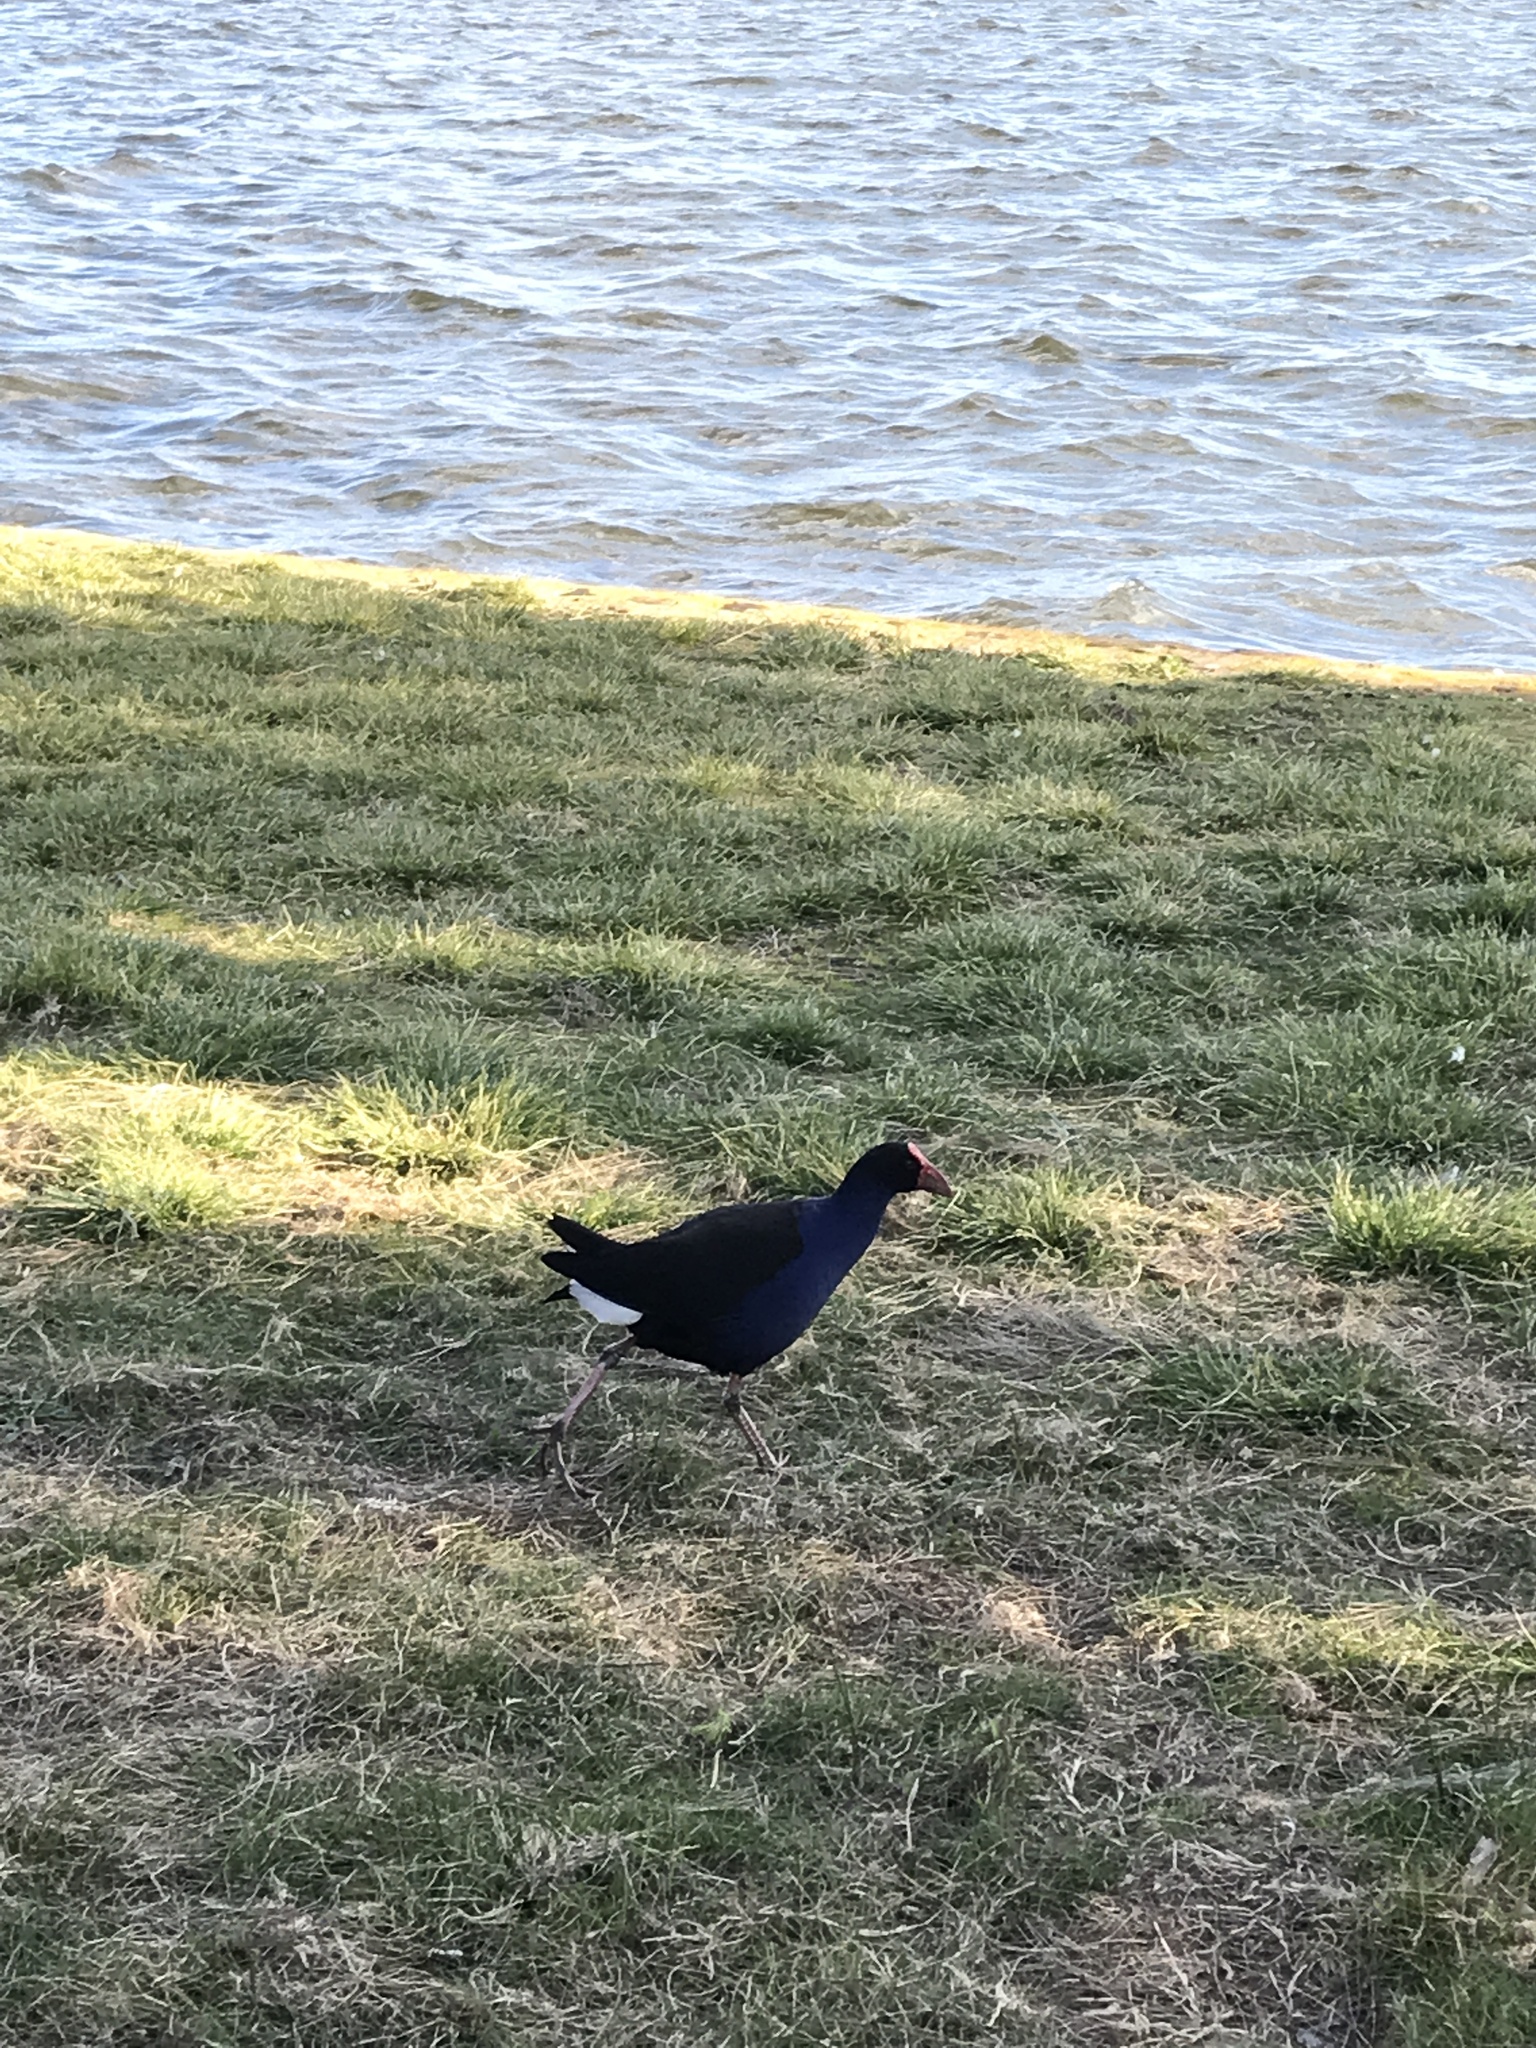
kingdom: Animalia
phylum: Chordata
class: Aves
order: Gruiformes
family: Rallidae
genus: Porphyrio
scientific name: Porphyrio melanotus
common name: Australasian swamphen
